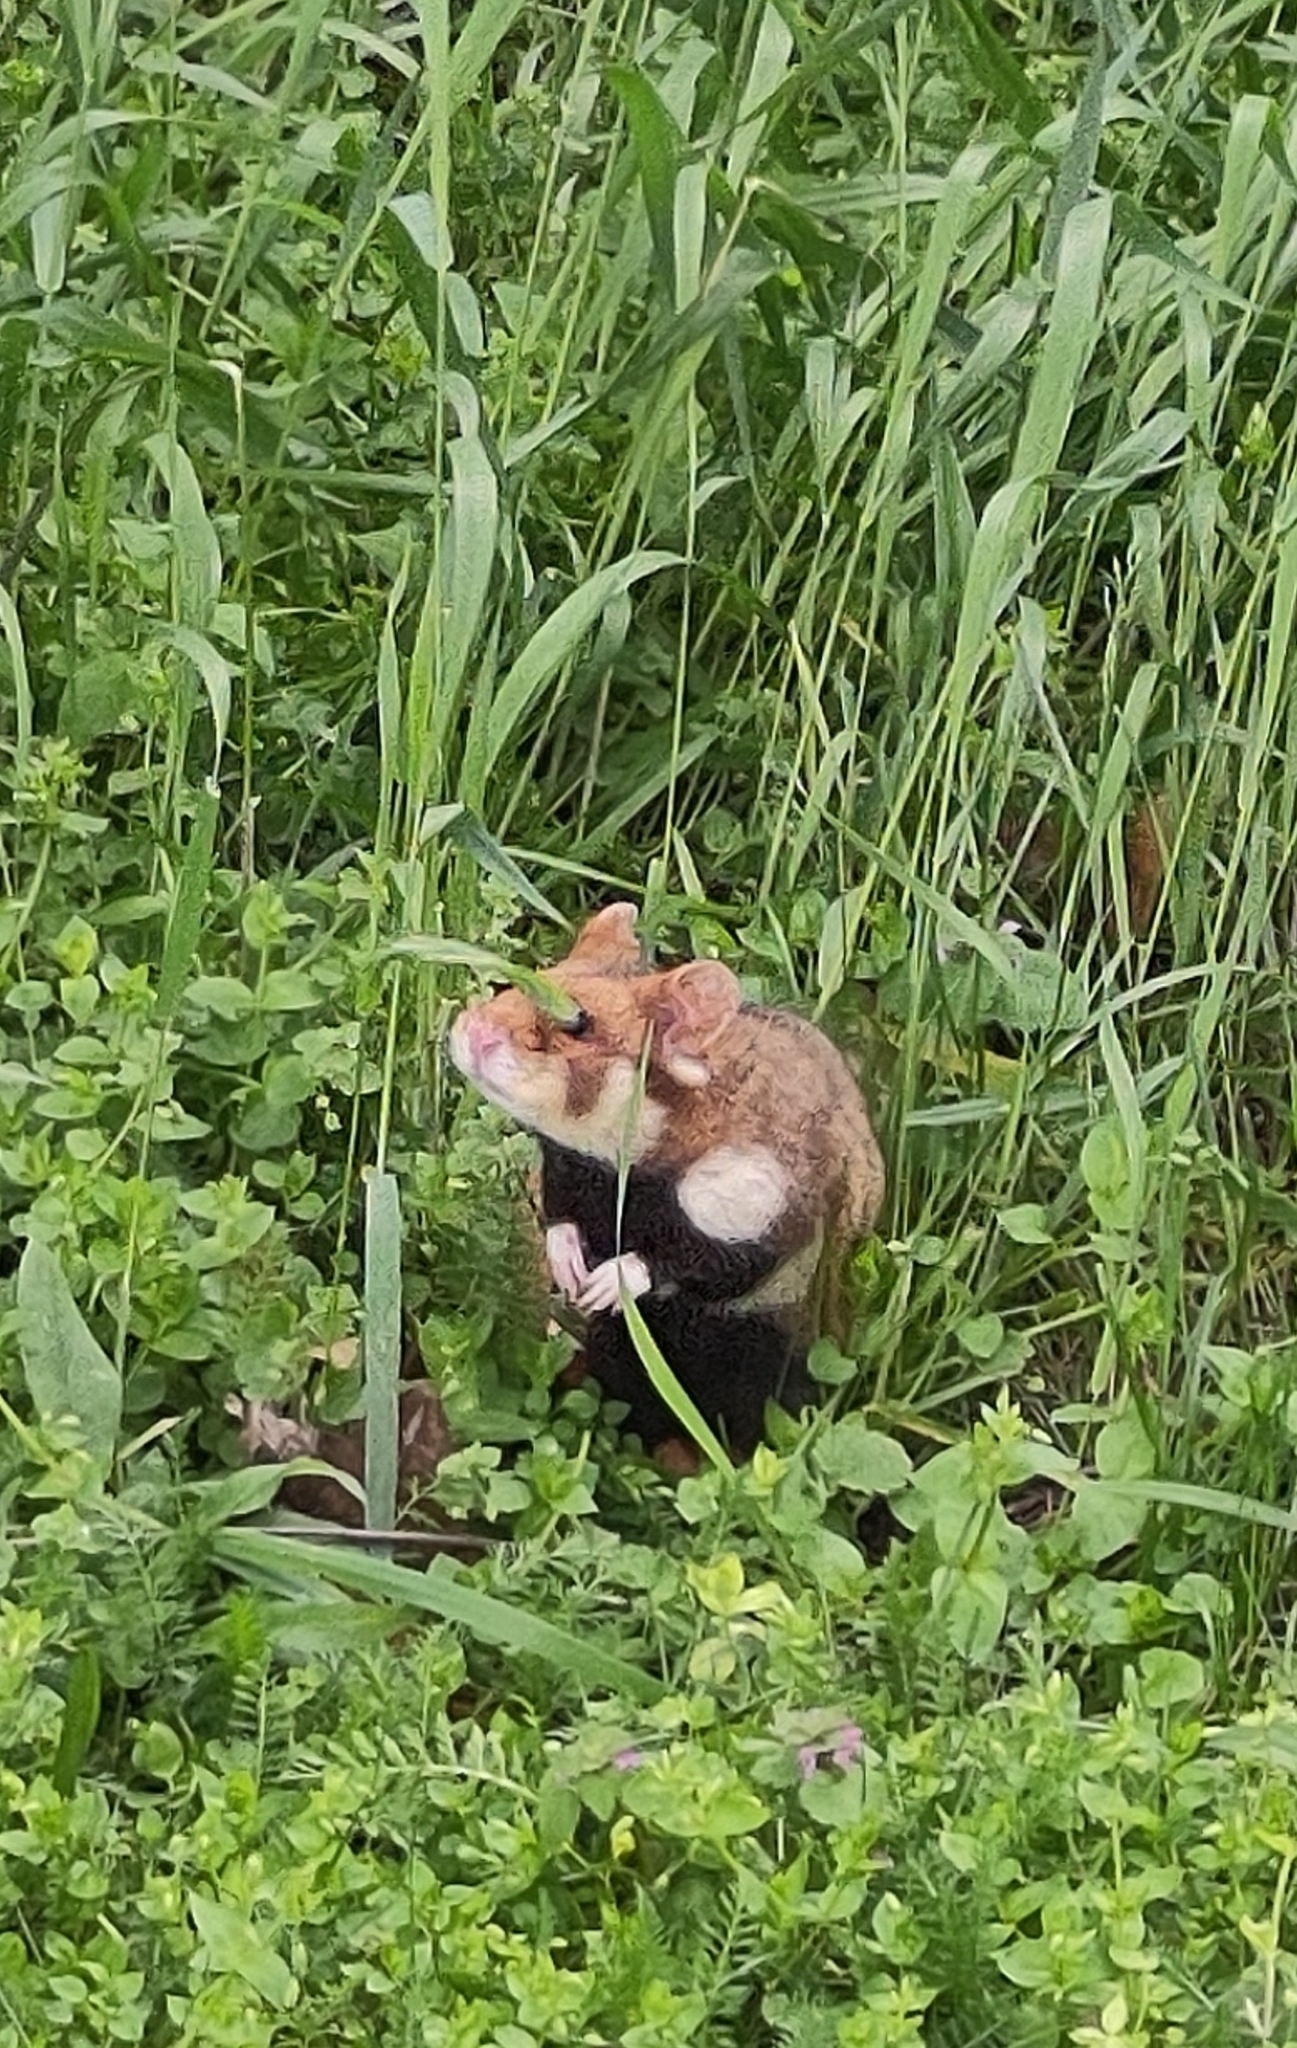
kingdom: Animalia
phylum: Chordata
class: Mammalia
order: Rodentia
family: Cricetidae
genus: Cricetus
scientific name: Cricetus cricetus
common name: Common hamster
